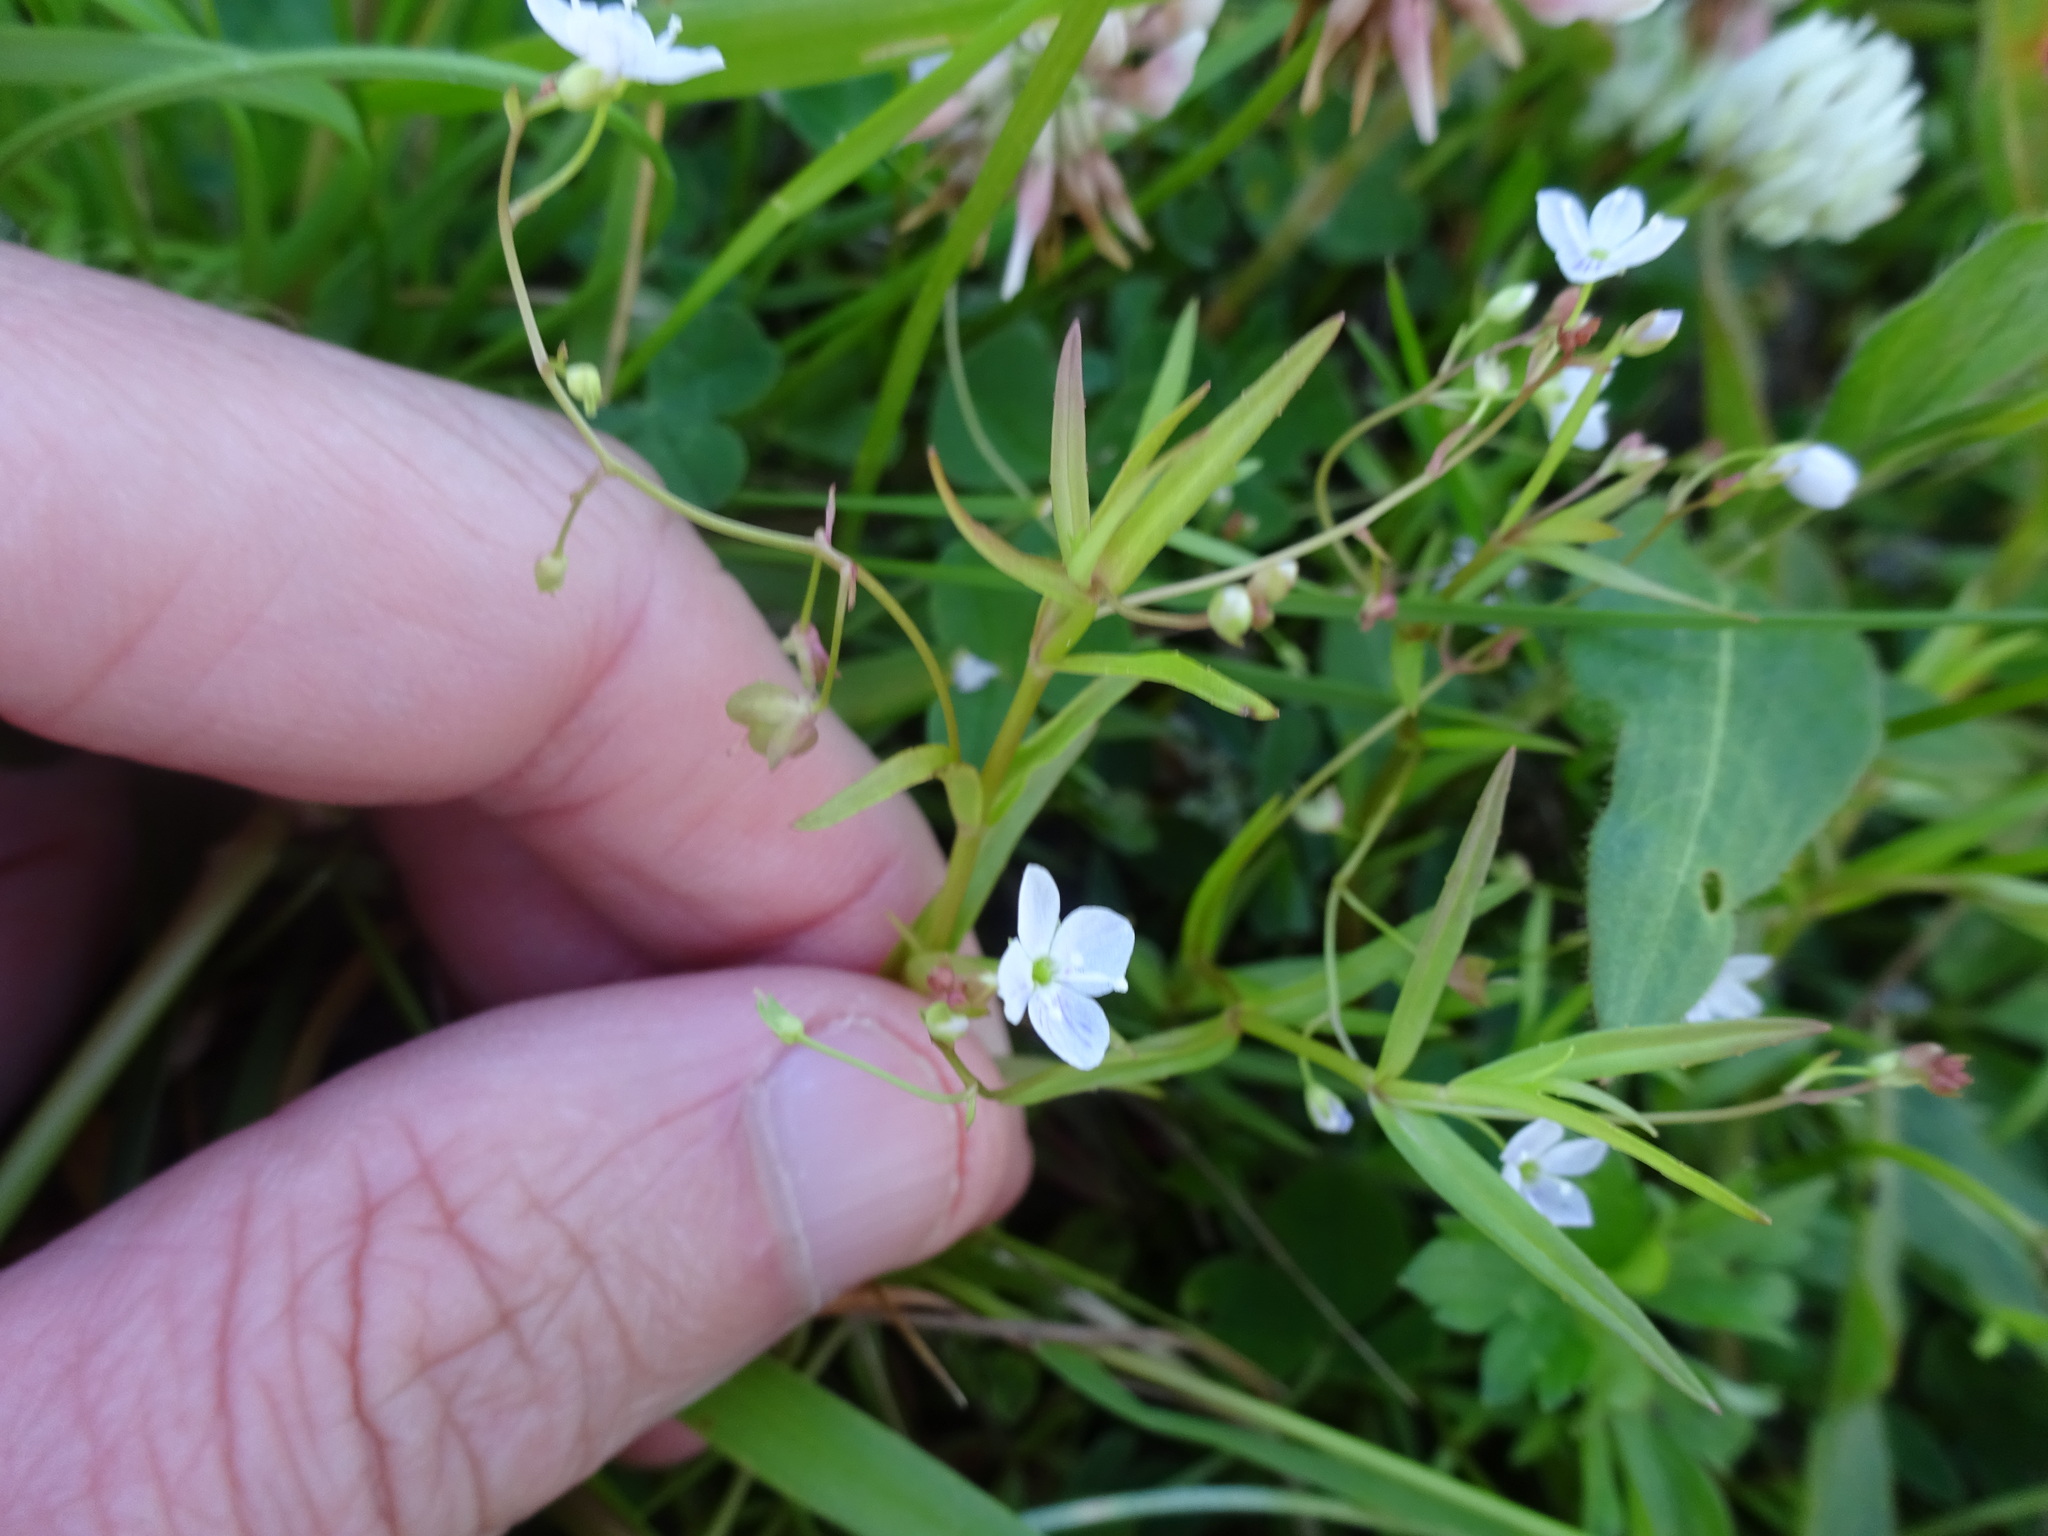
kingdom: Plantae
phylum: Tracheophyta
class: Magnoliopsida
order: Lamiales
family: Plantaginaceae
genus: Veronica
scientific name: Veronica scutellata
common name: Marsh speedwell
